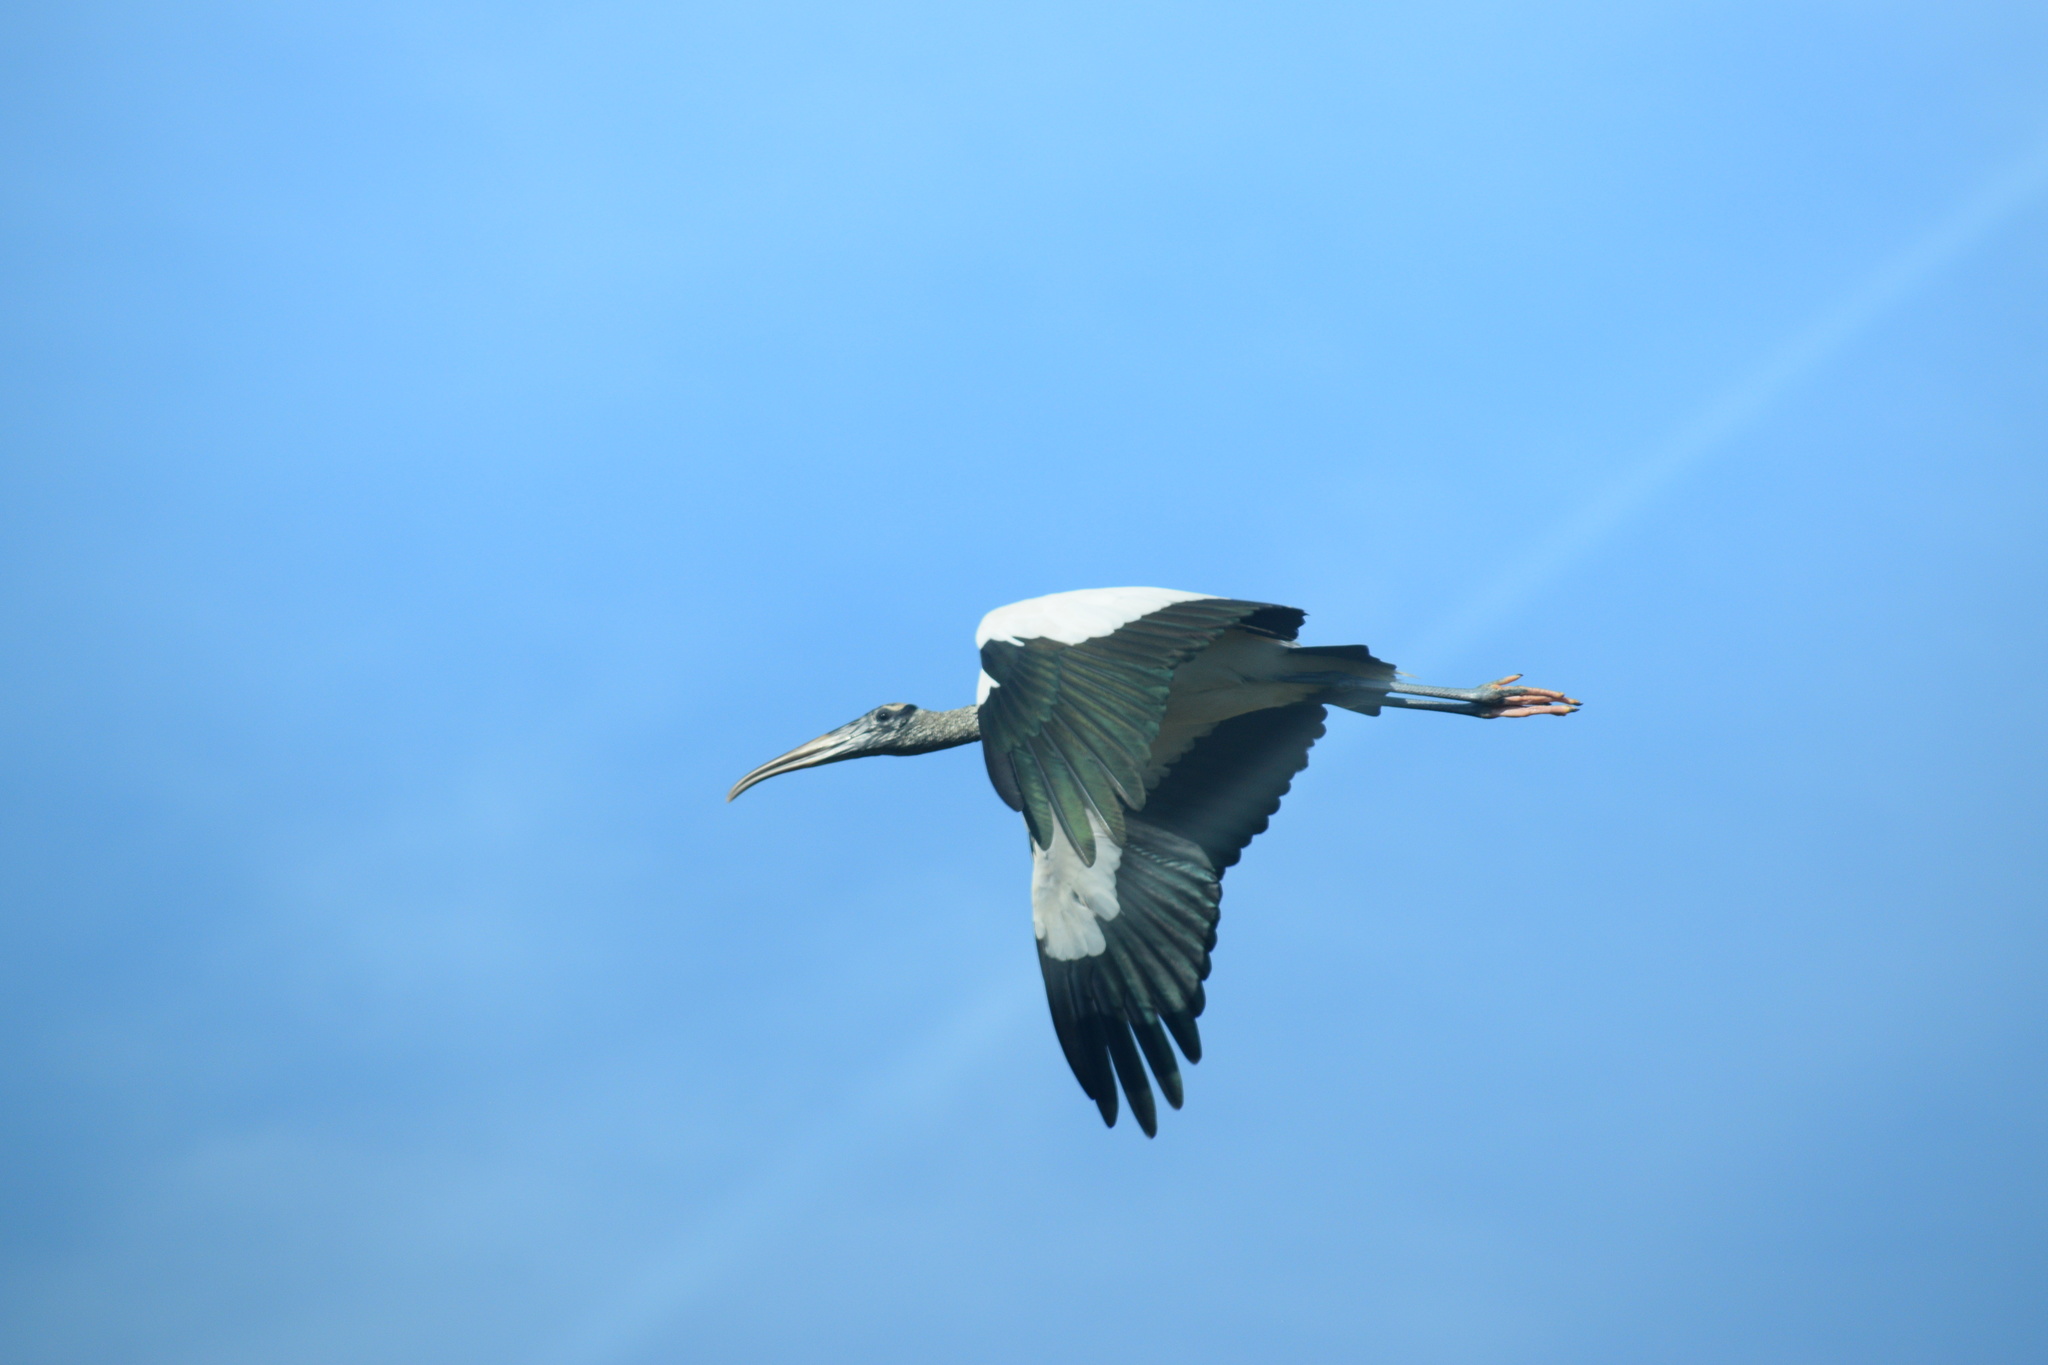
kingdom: Animalia
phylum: Chordata
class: Aves
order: Ciconiiformes
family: Ciconiidae
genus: Mycteria
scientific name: Mycteria americana
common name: Wood stork
